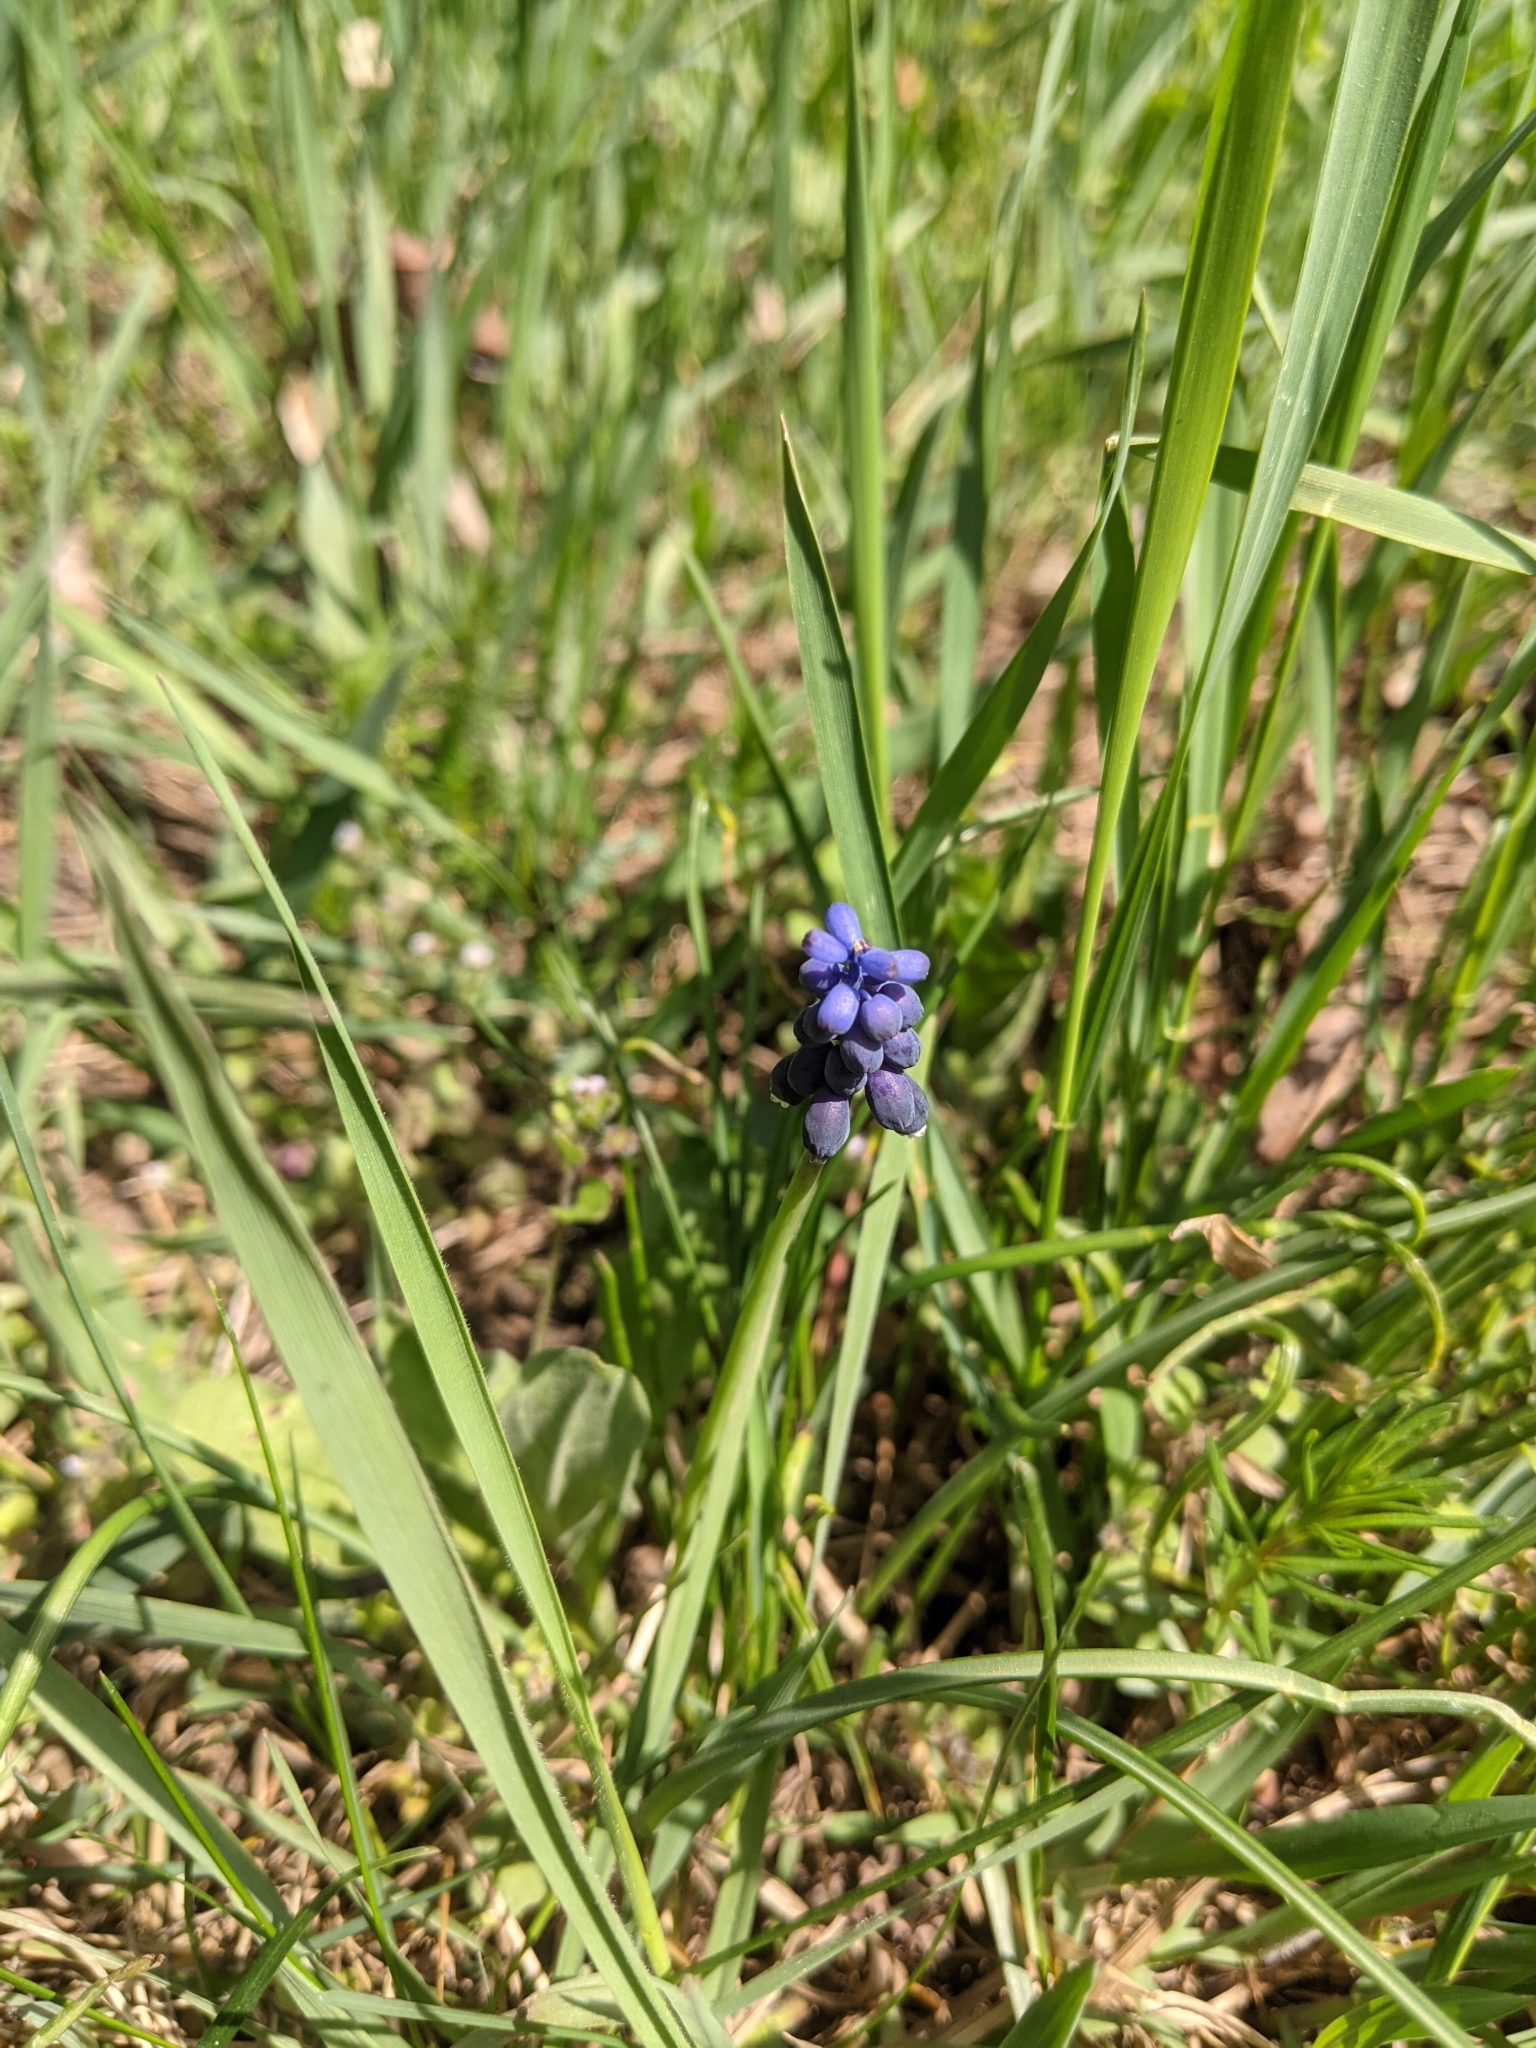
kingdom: Plantae
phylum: Tracheophyta
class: Liliopsida
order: Asparagales
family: Asparagaceae
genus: Muscari
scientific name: Muscari neglectum
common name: Grape-hyacinth
